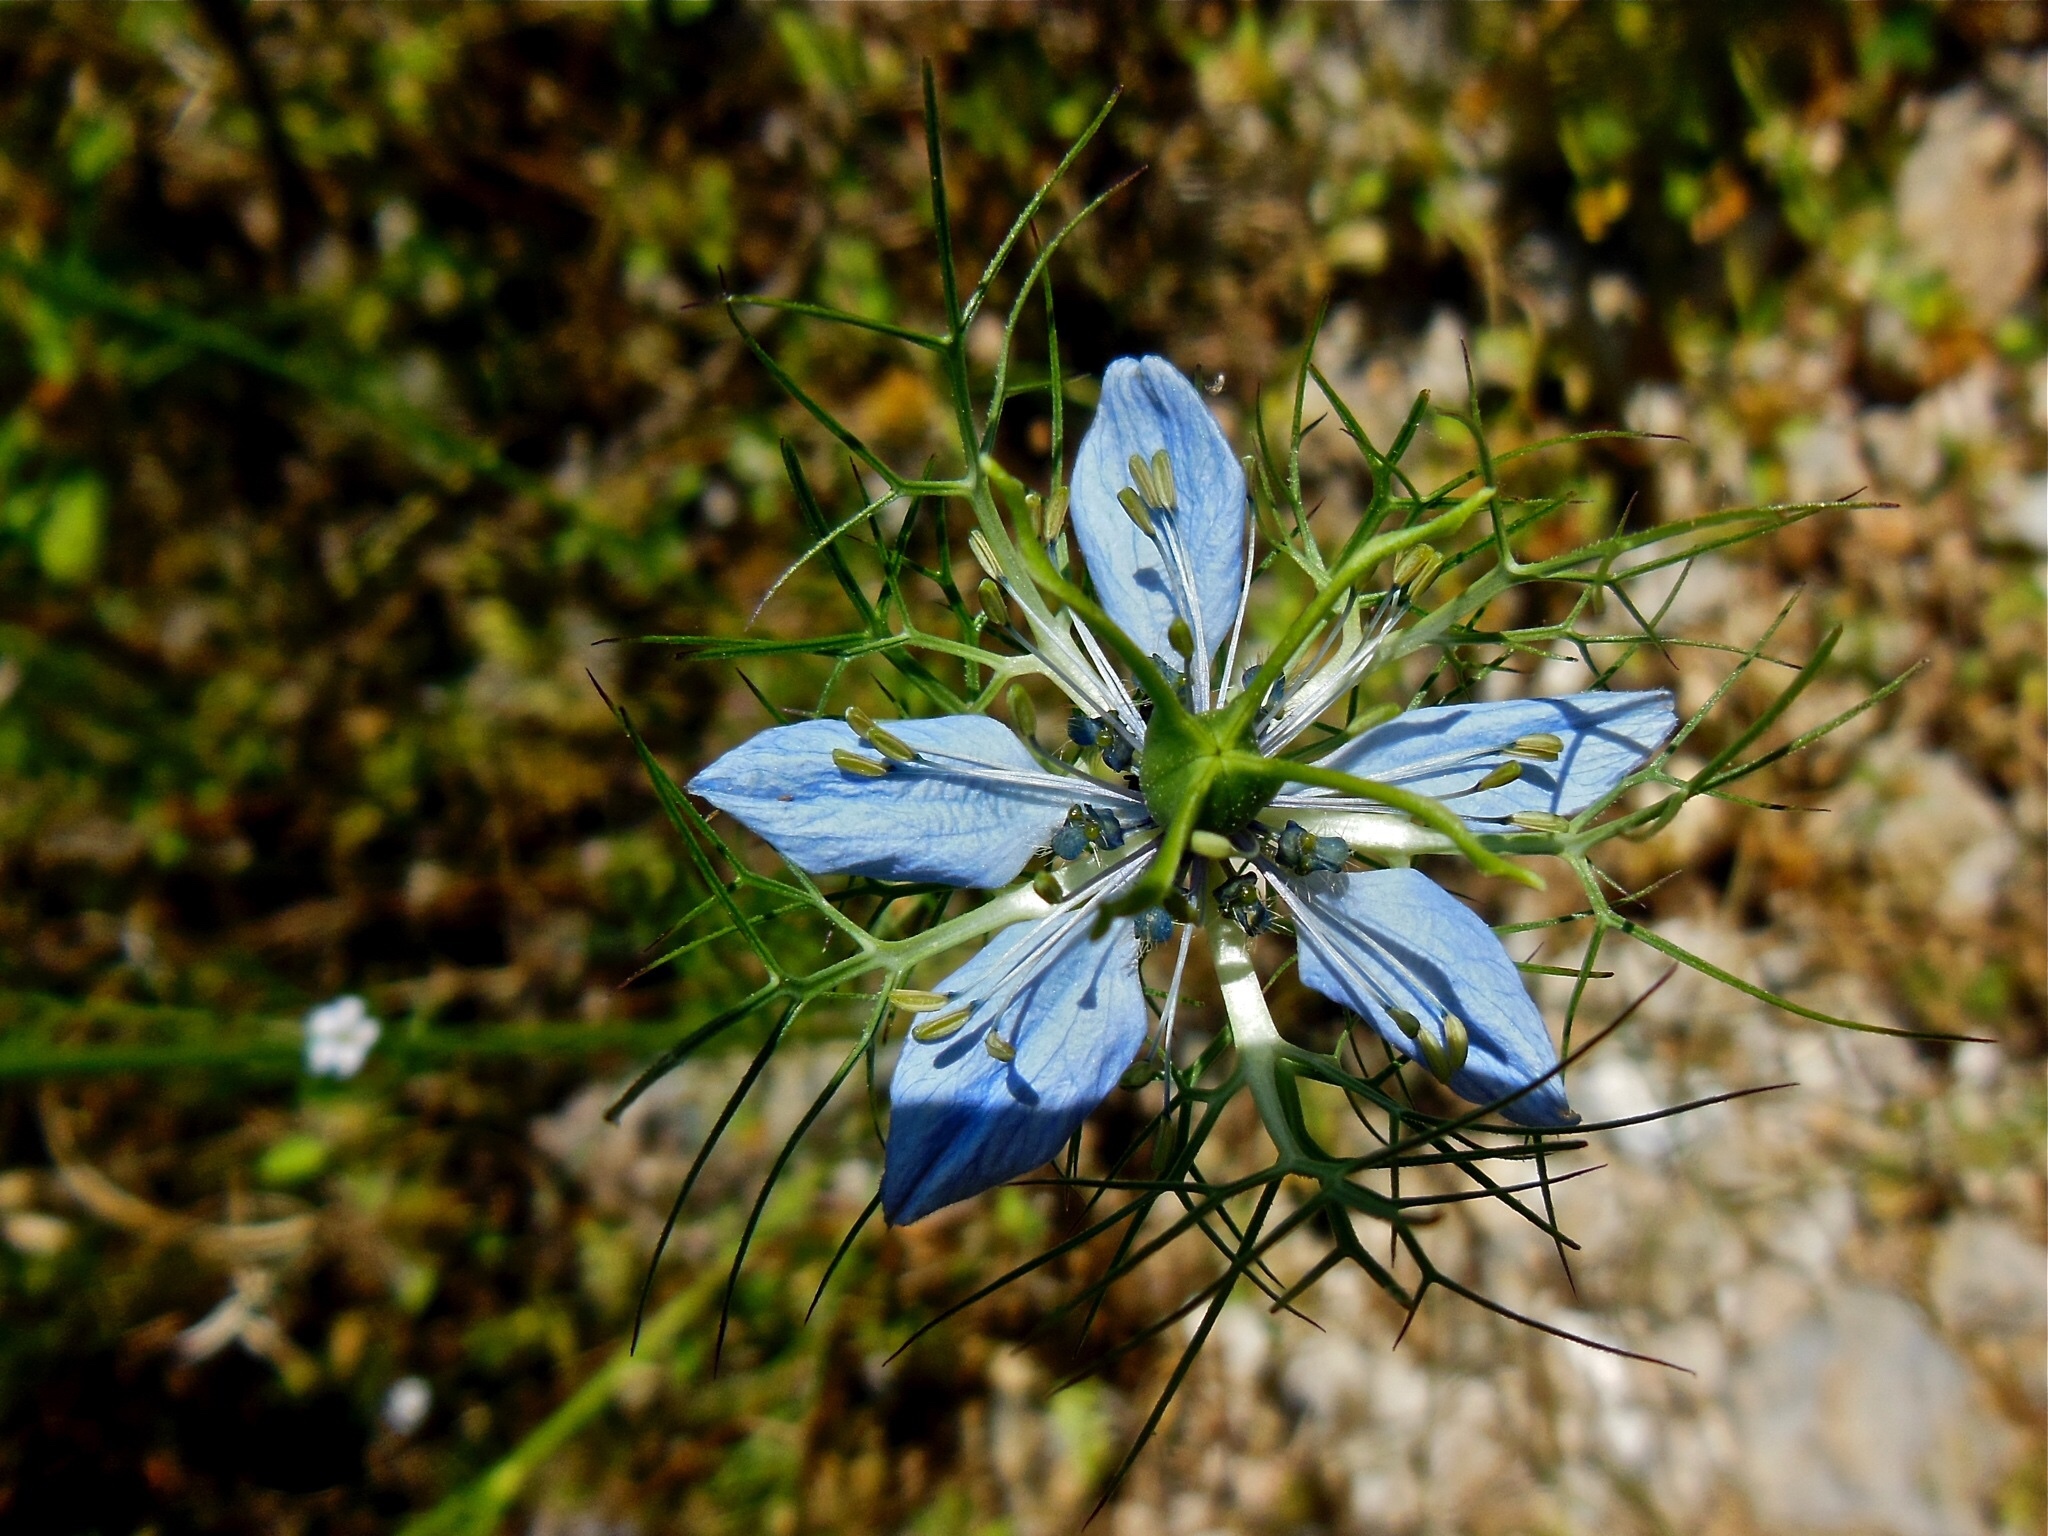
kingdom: Plantae
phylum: Tracheophyta
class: Magnoliopsida
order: Ranunculales
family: Ranunculaceae
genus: Nigella
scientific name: Nigella damascena
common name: Love-in-a-mist
